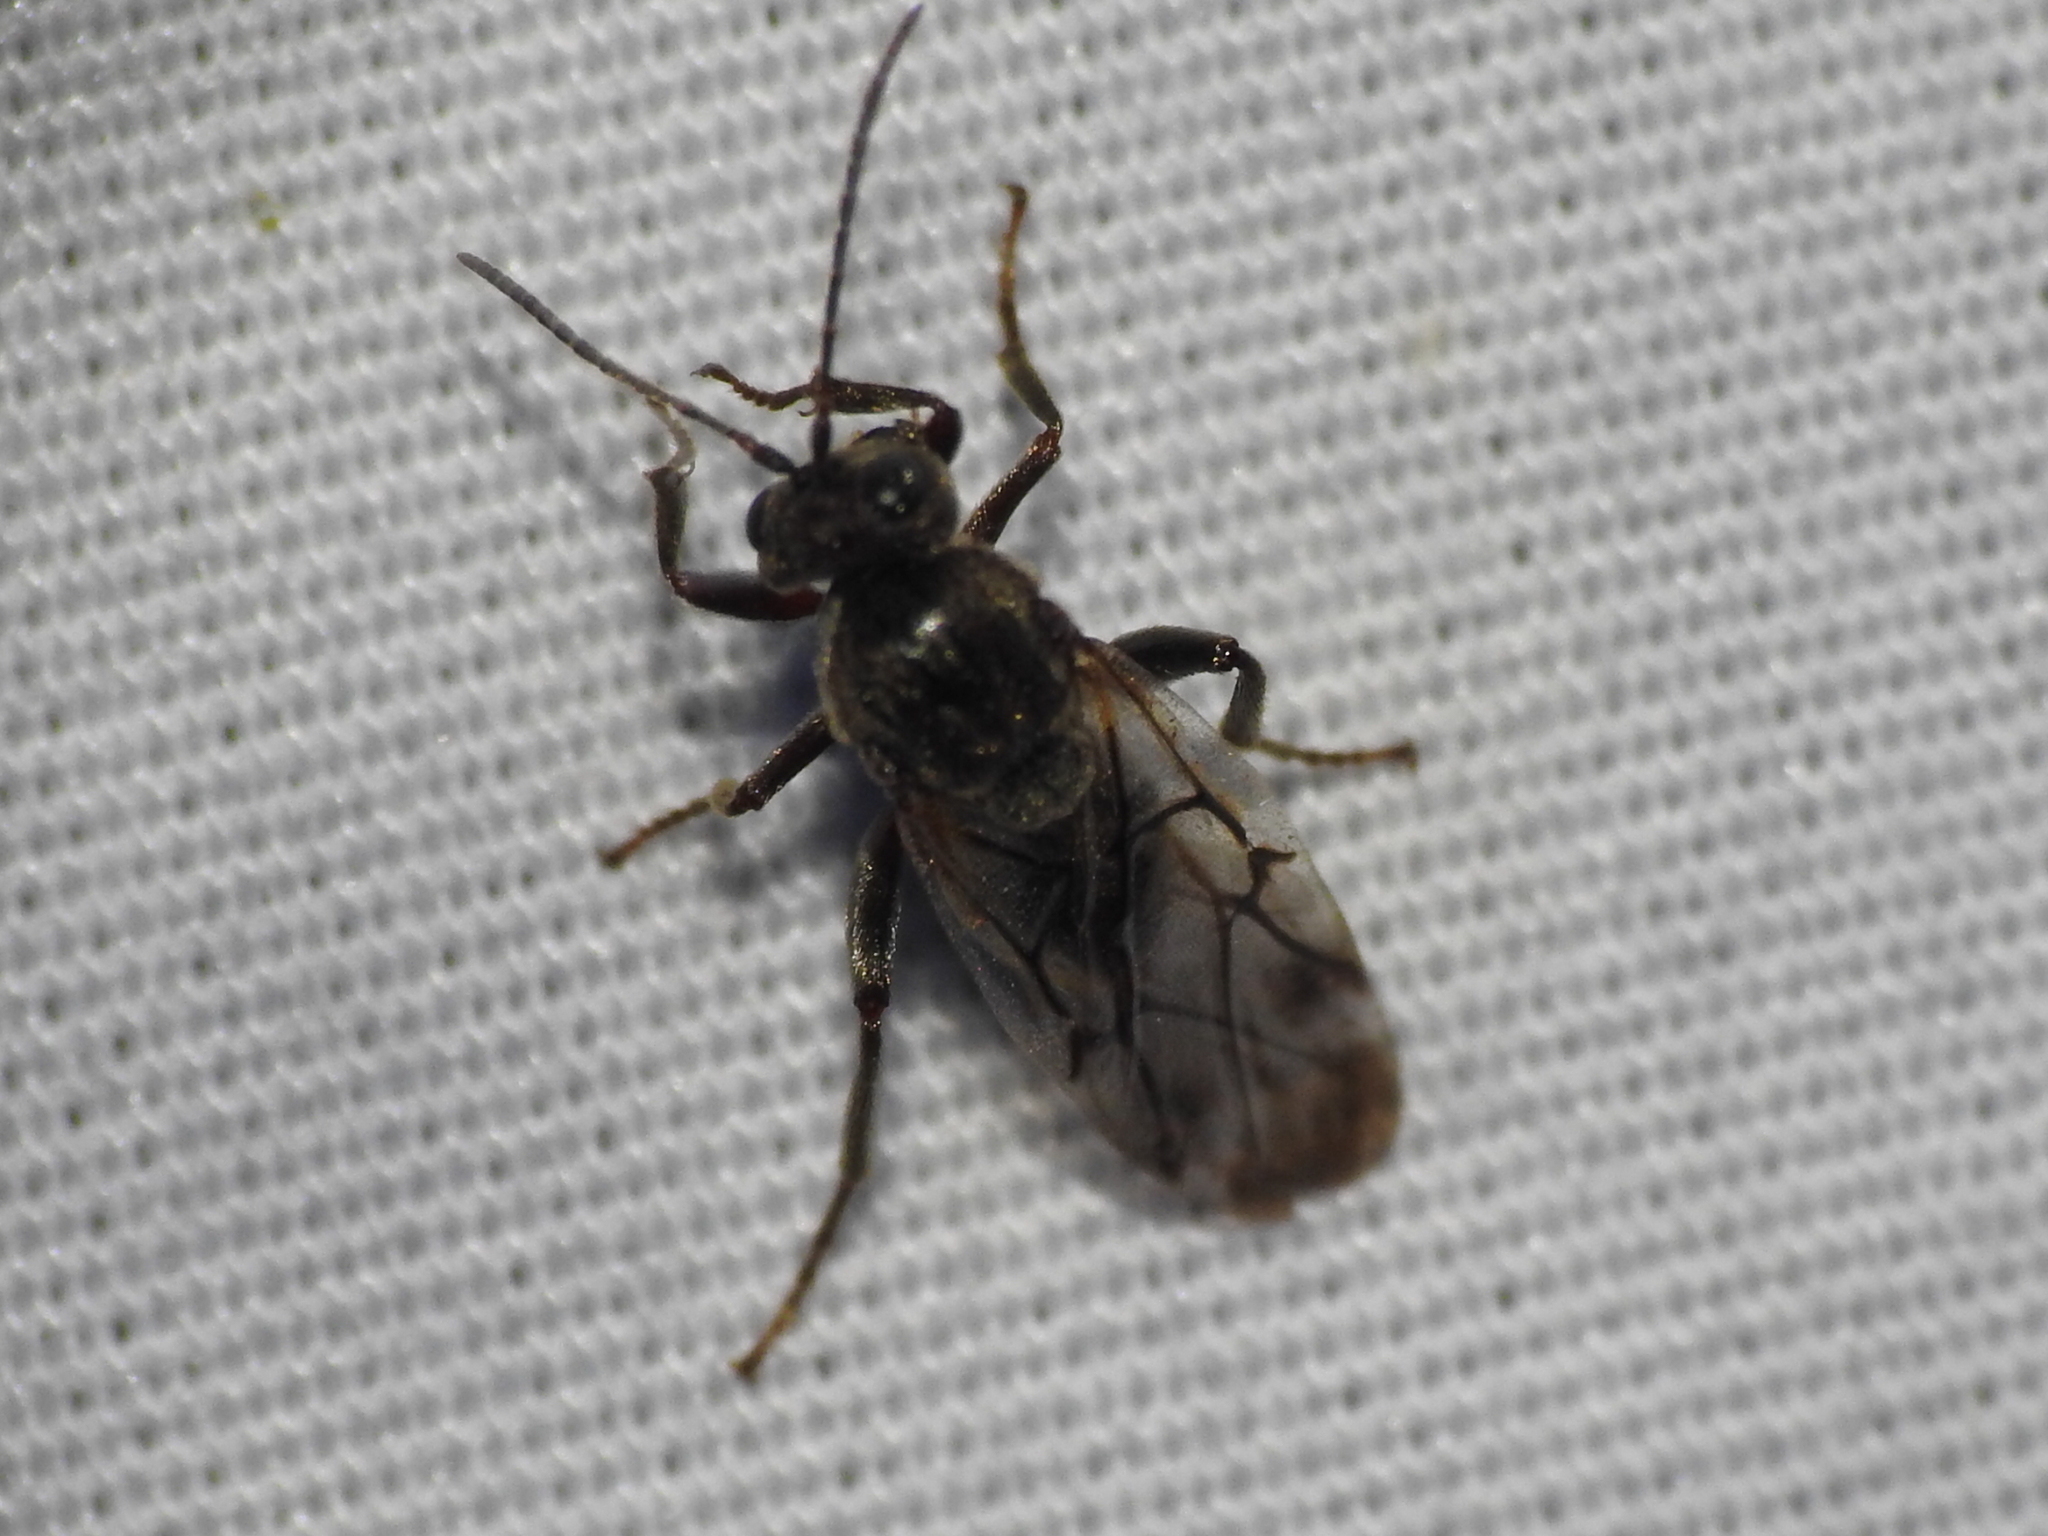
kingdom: Animalia
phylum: Arthropoda
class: Insecta
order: Hymenoptera
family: Cynipidae
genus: Odontocynips
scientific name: Odontocynips nebulosa
